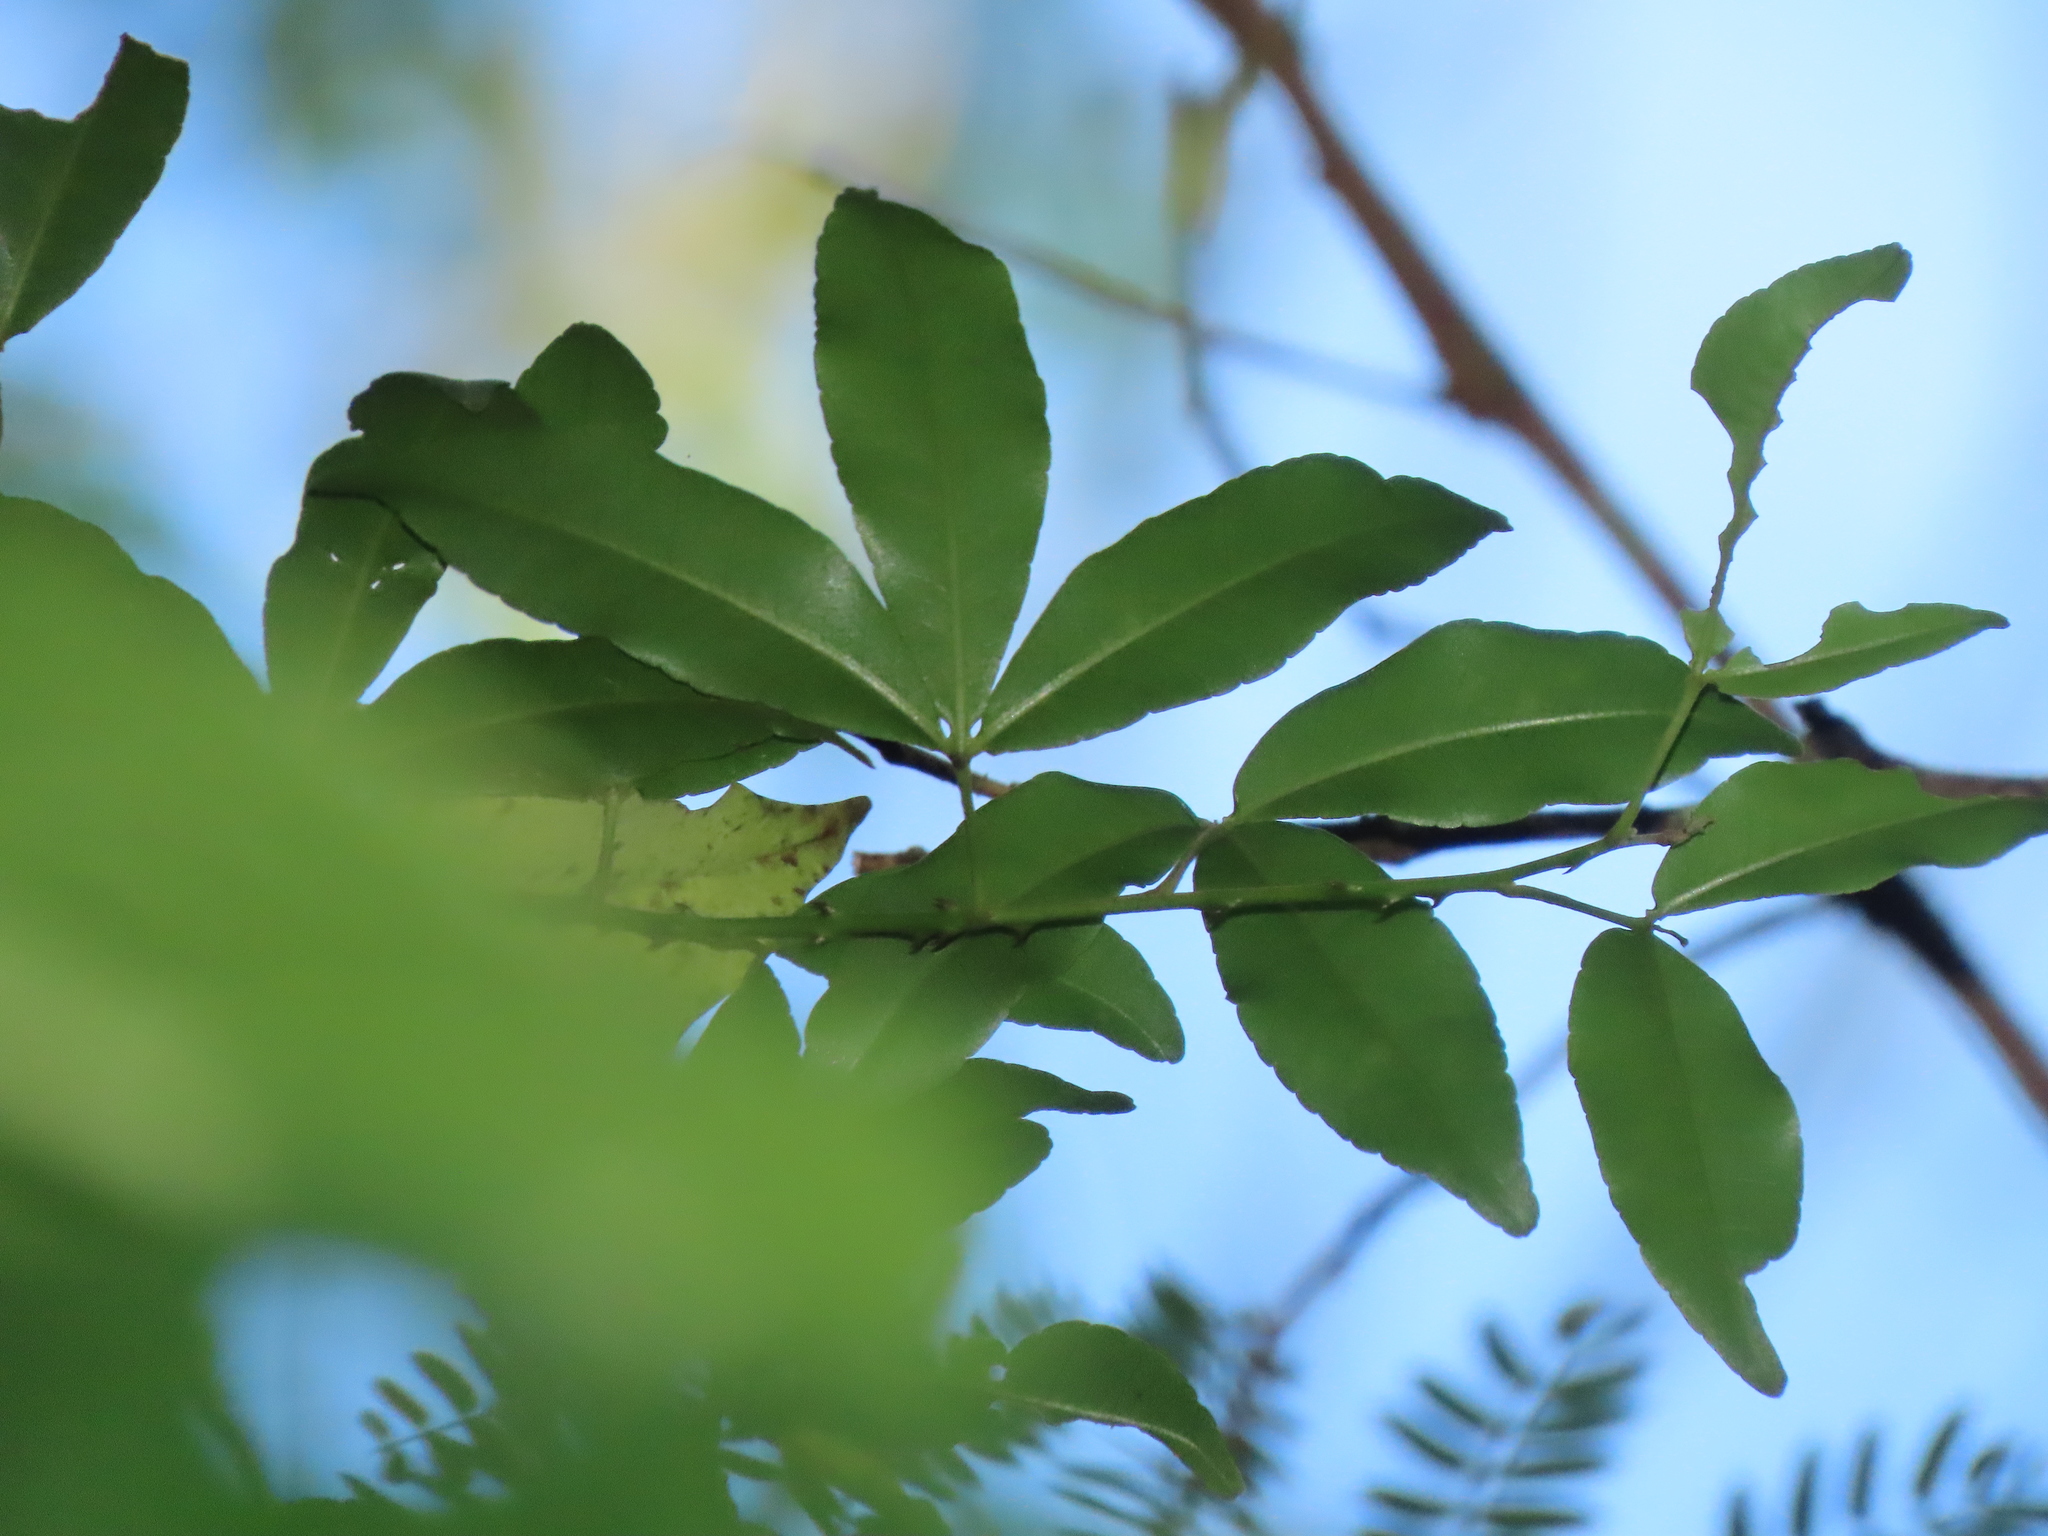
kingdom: Plantae
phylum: Tracheophyta
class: Magnoliopsida
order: Sapindales
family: Rutaceae
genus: Zanthoxylum
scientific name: Zanthoxylum asiaticum
